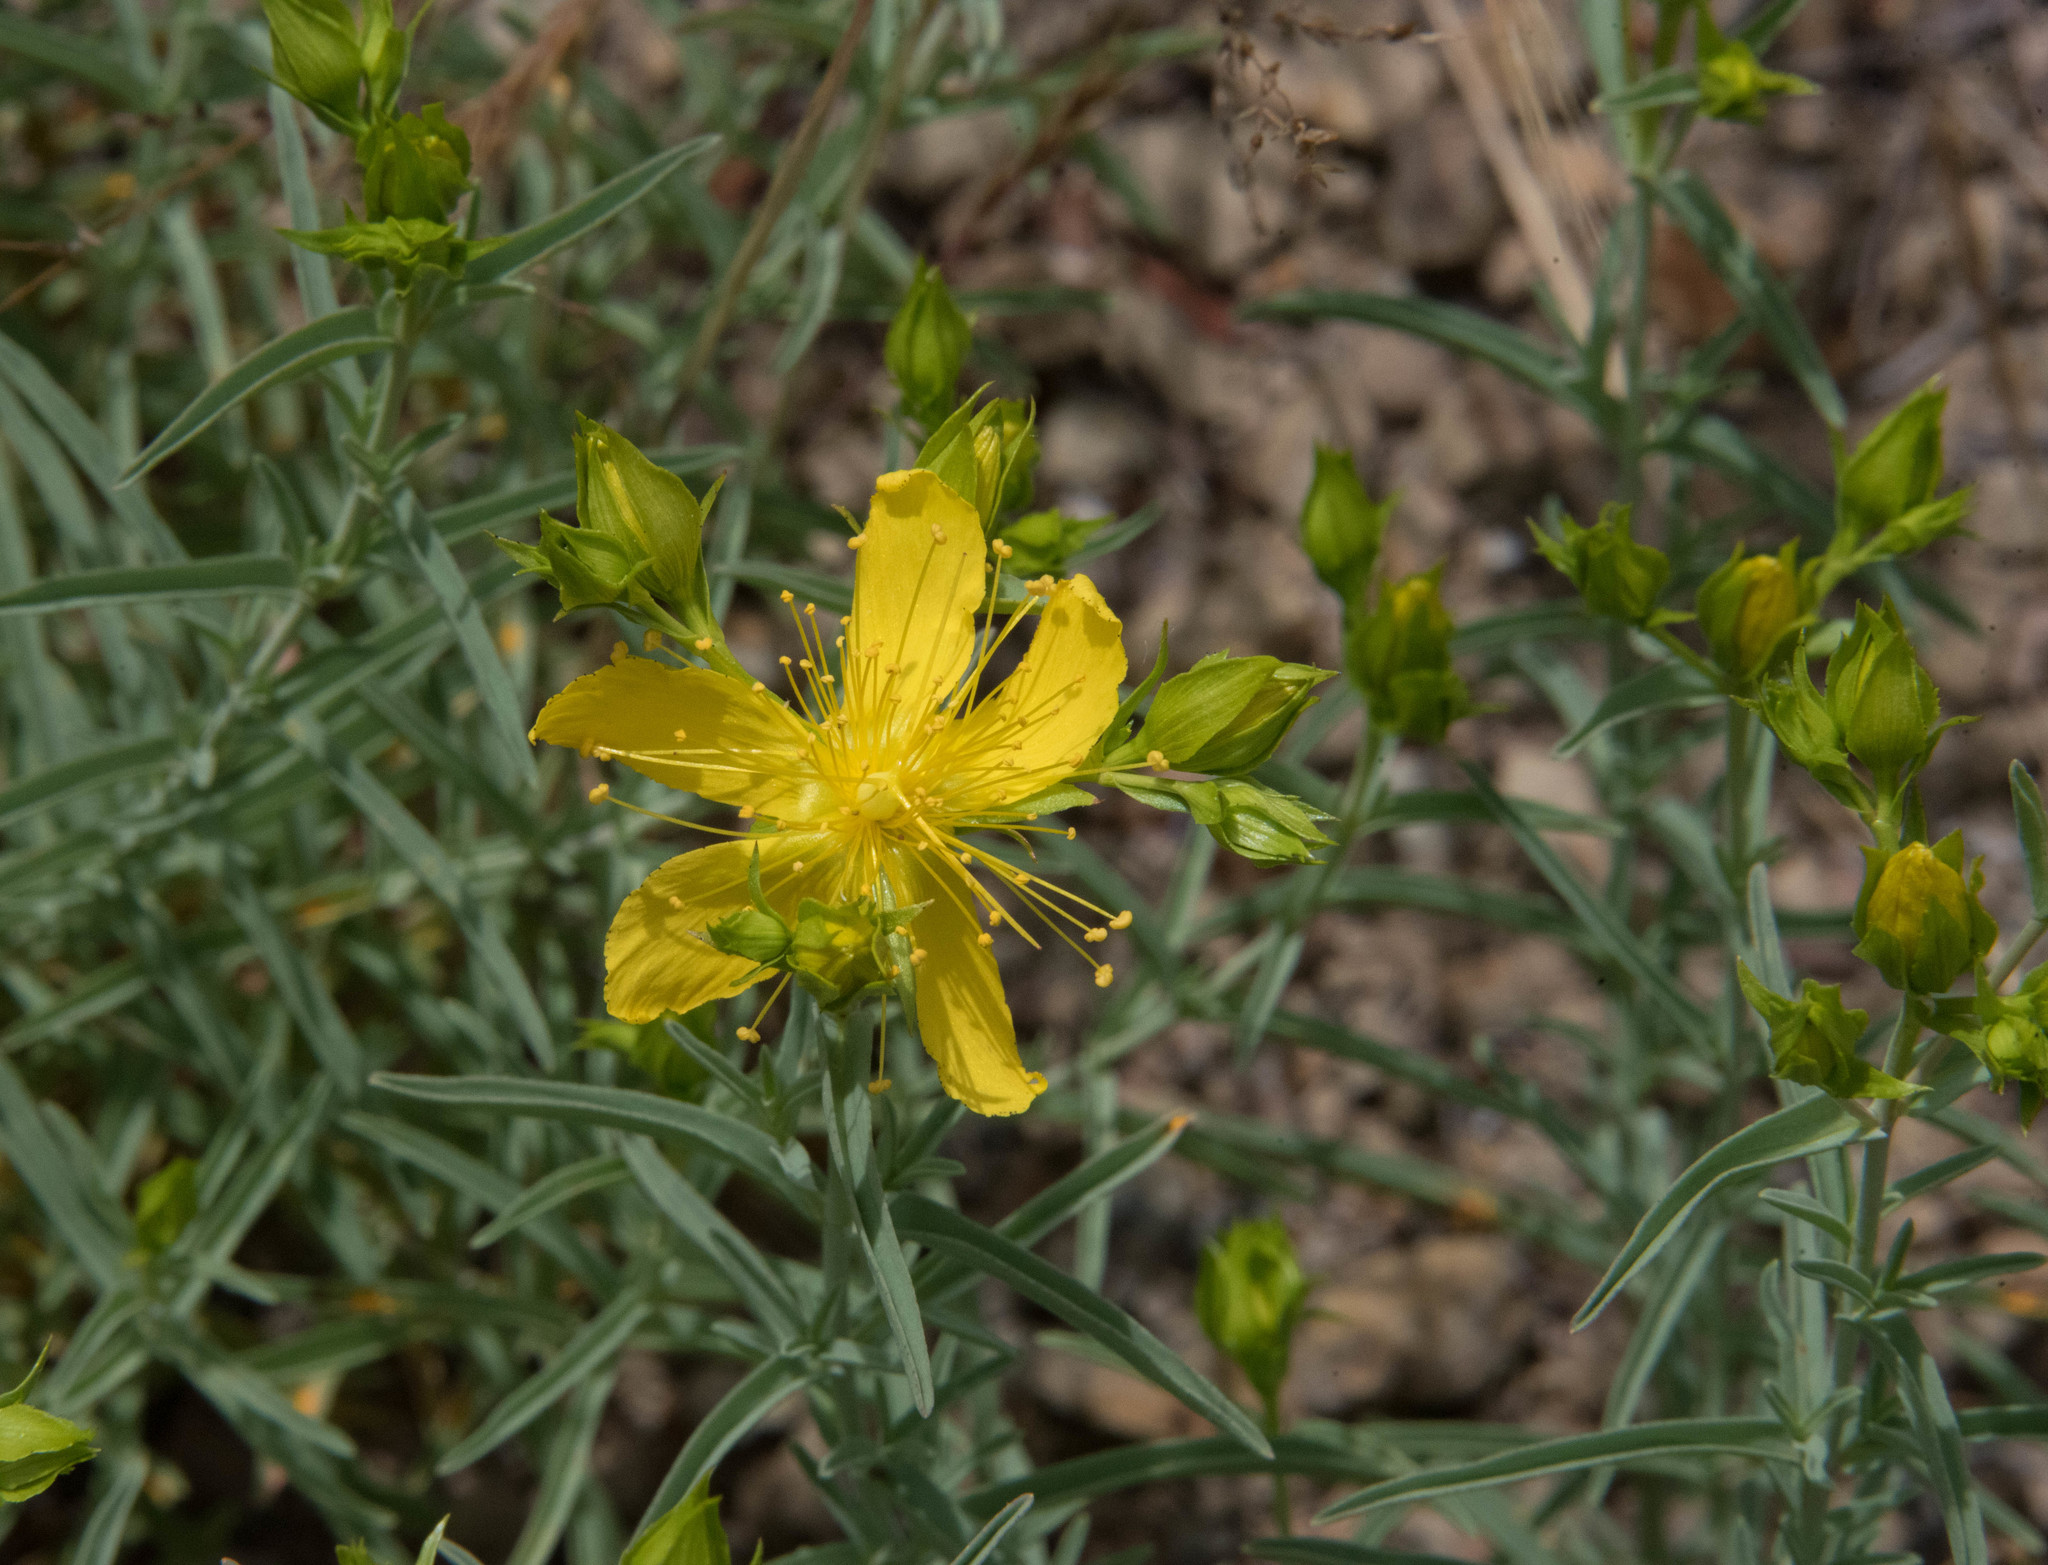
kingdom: Plantae
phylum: Tracheophyta
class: Magnoliopsida
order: Malpighiales
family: Hypericaceae
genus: Hypericum
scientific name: Hypericum concinnum
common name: Gold-wire
